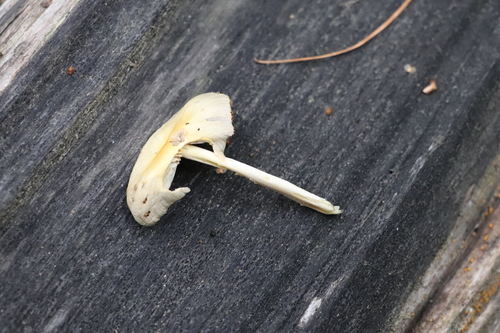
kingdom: Fungi
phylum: Basidiomycota
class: Agaricomycetes
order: Agaricales
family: Bolbitiaceae
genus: Bolbitius
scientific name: Bolbitius titubans
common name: Yellow fieldcap
